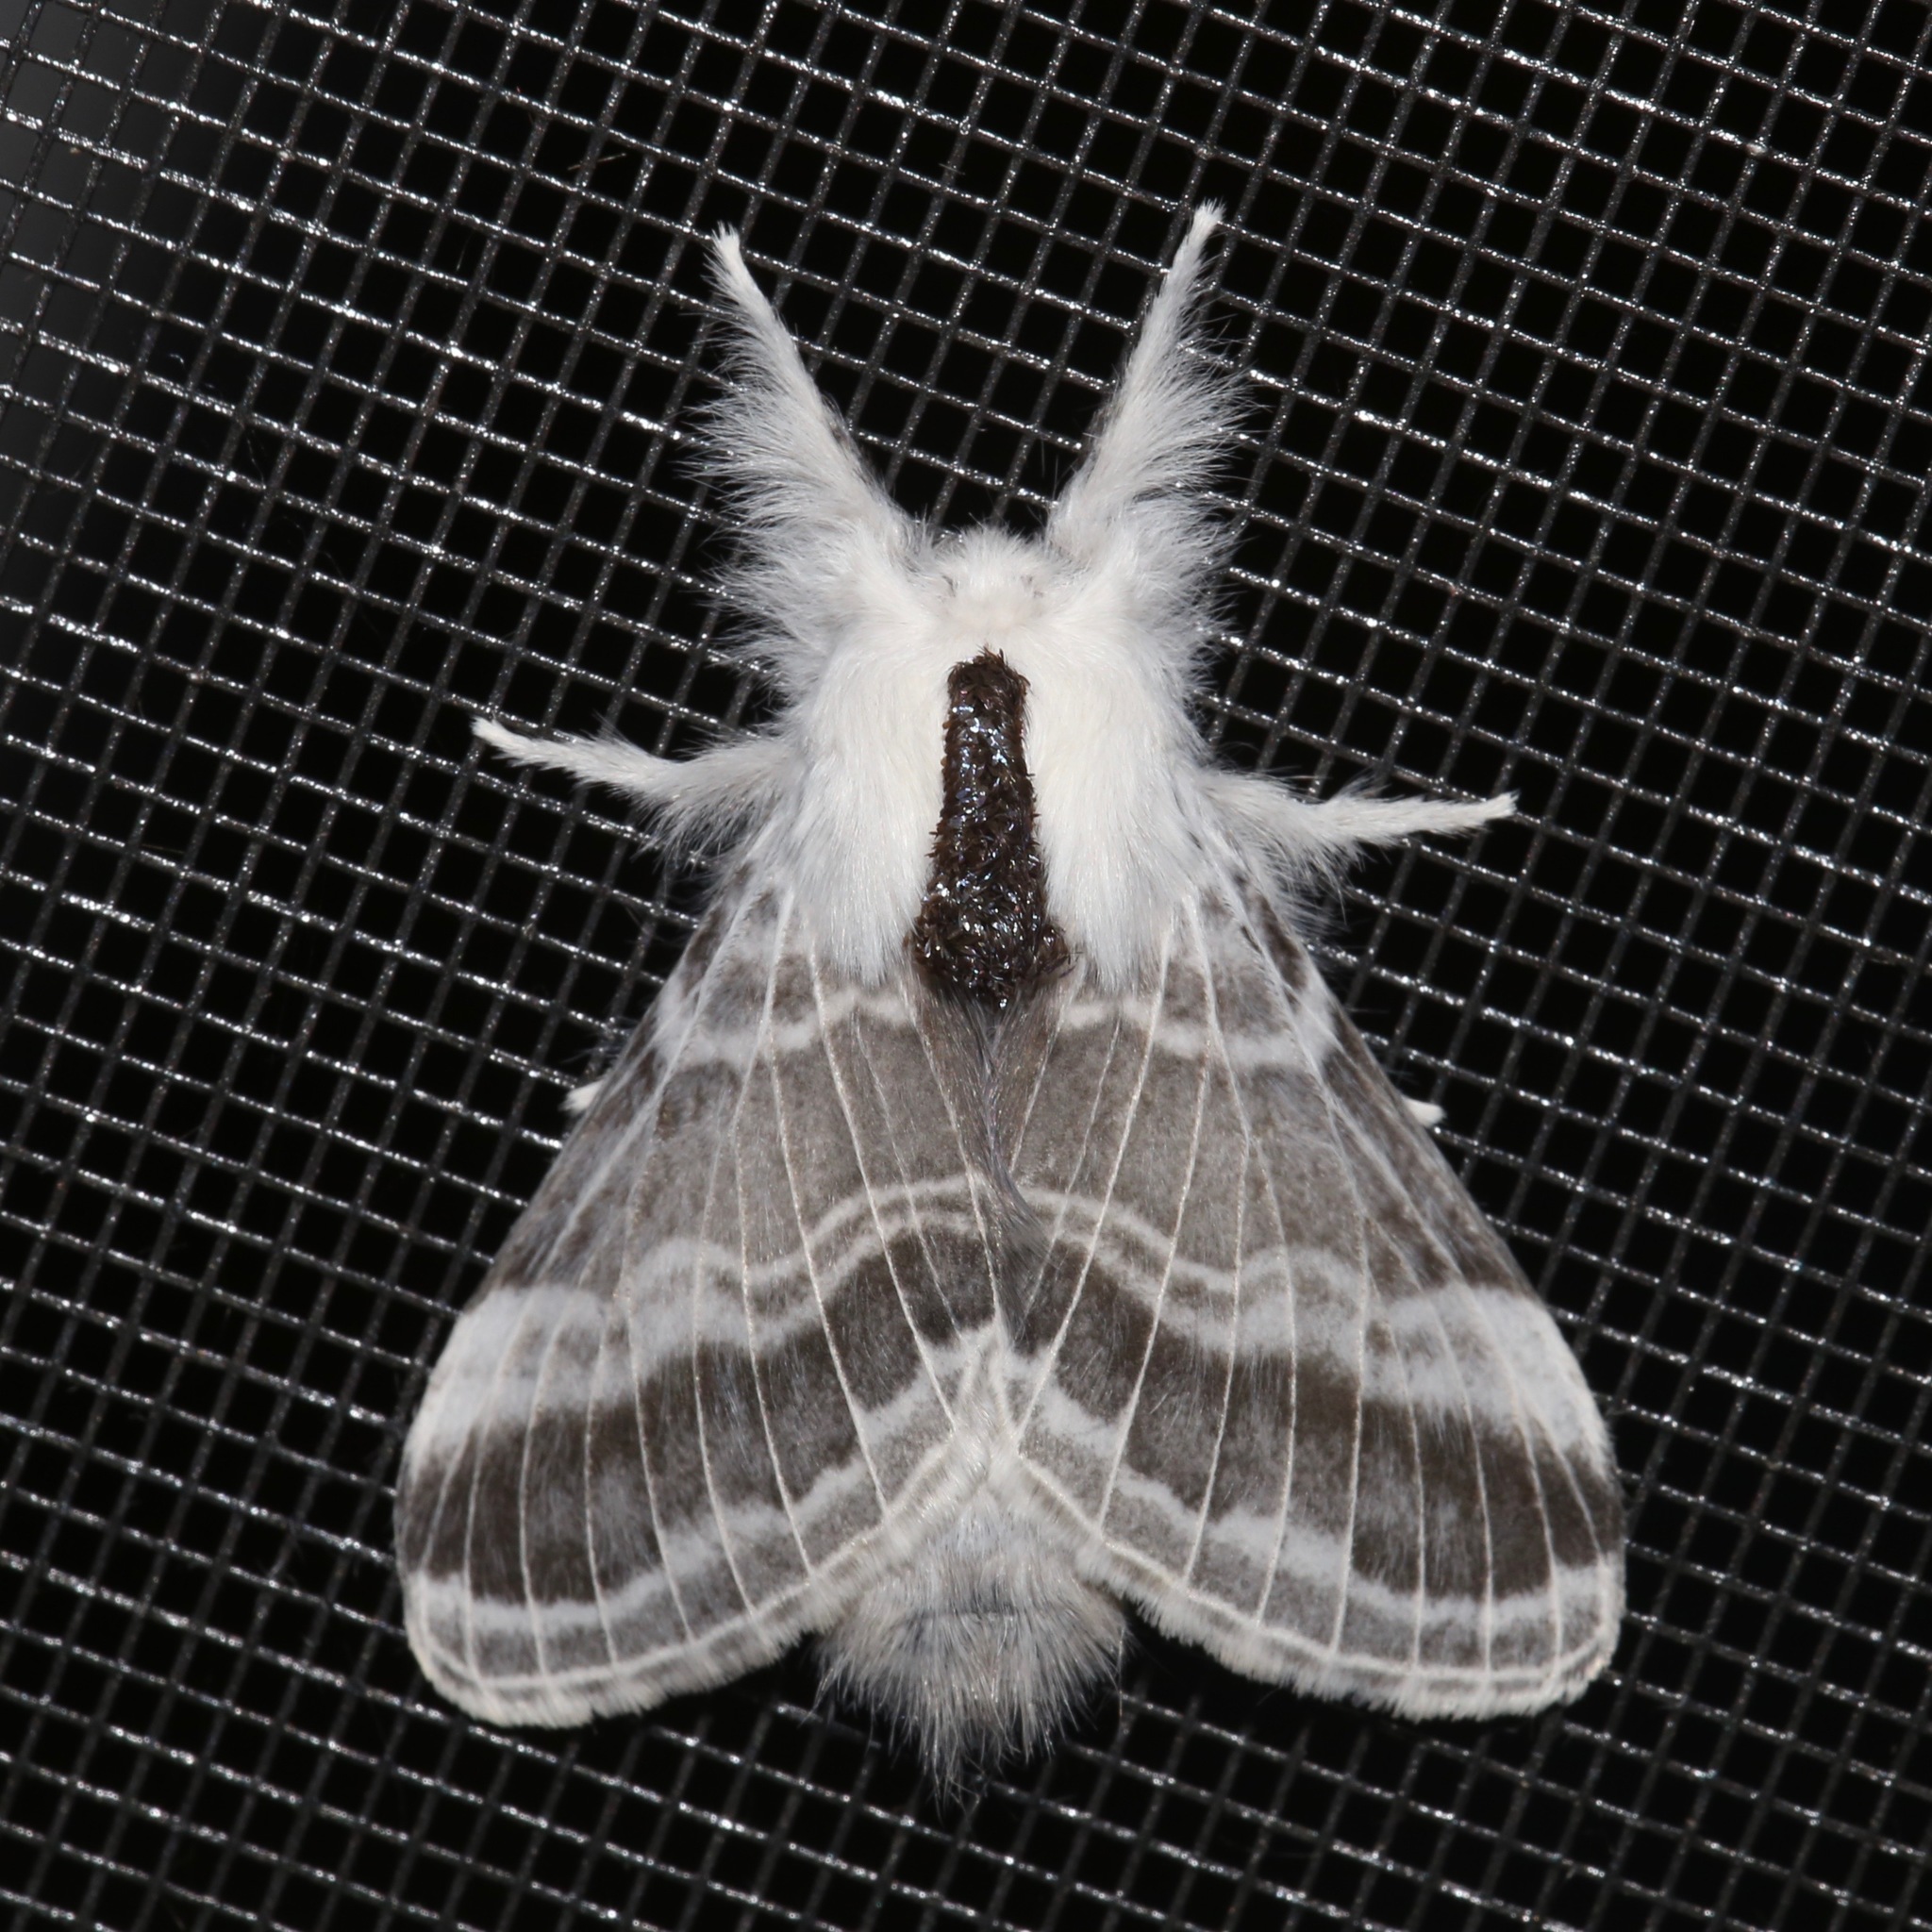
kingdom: Animalia
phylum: Arthropoda
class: Insecta
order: Lepidoptera
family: Lasiocampidae
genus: Tolype
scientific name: Tolype velleda
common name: Large tolype moth
